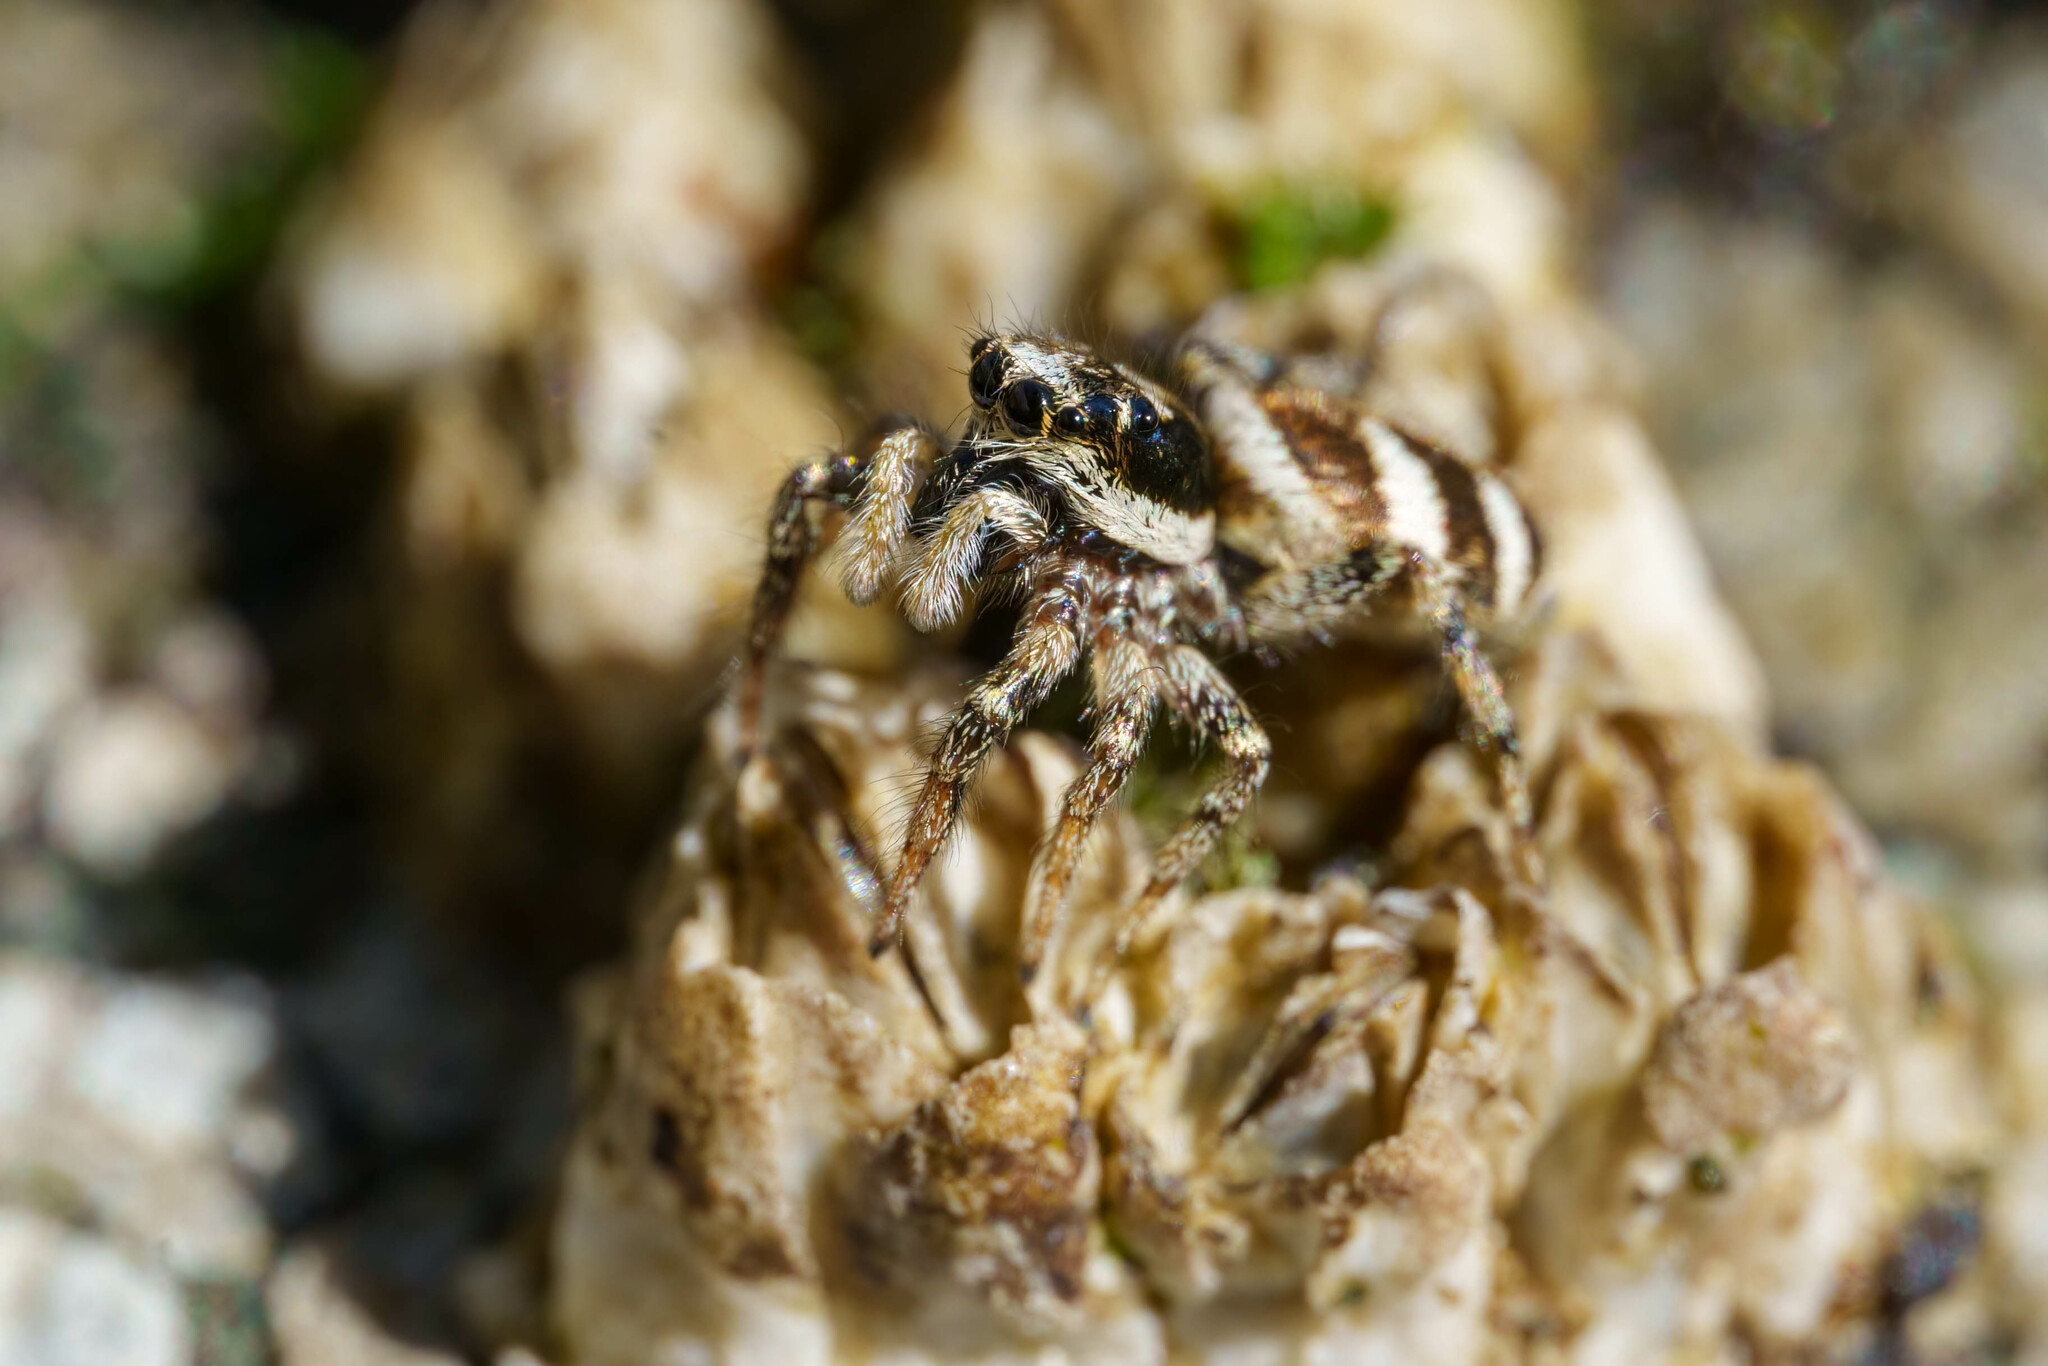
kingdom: Animalia
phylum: Arthropoda
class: Arachnida
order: Araneae
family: Salticidae
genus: Salticus
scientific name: Salticus scenicus
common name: Zebra jumper
